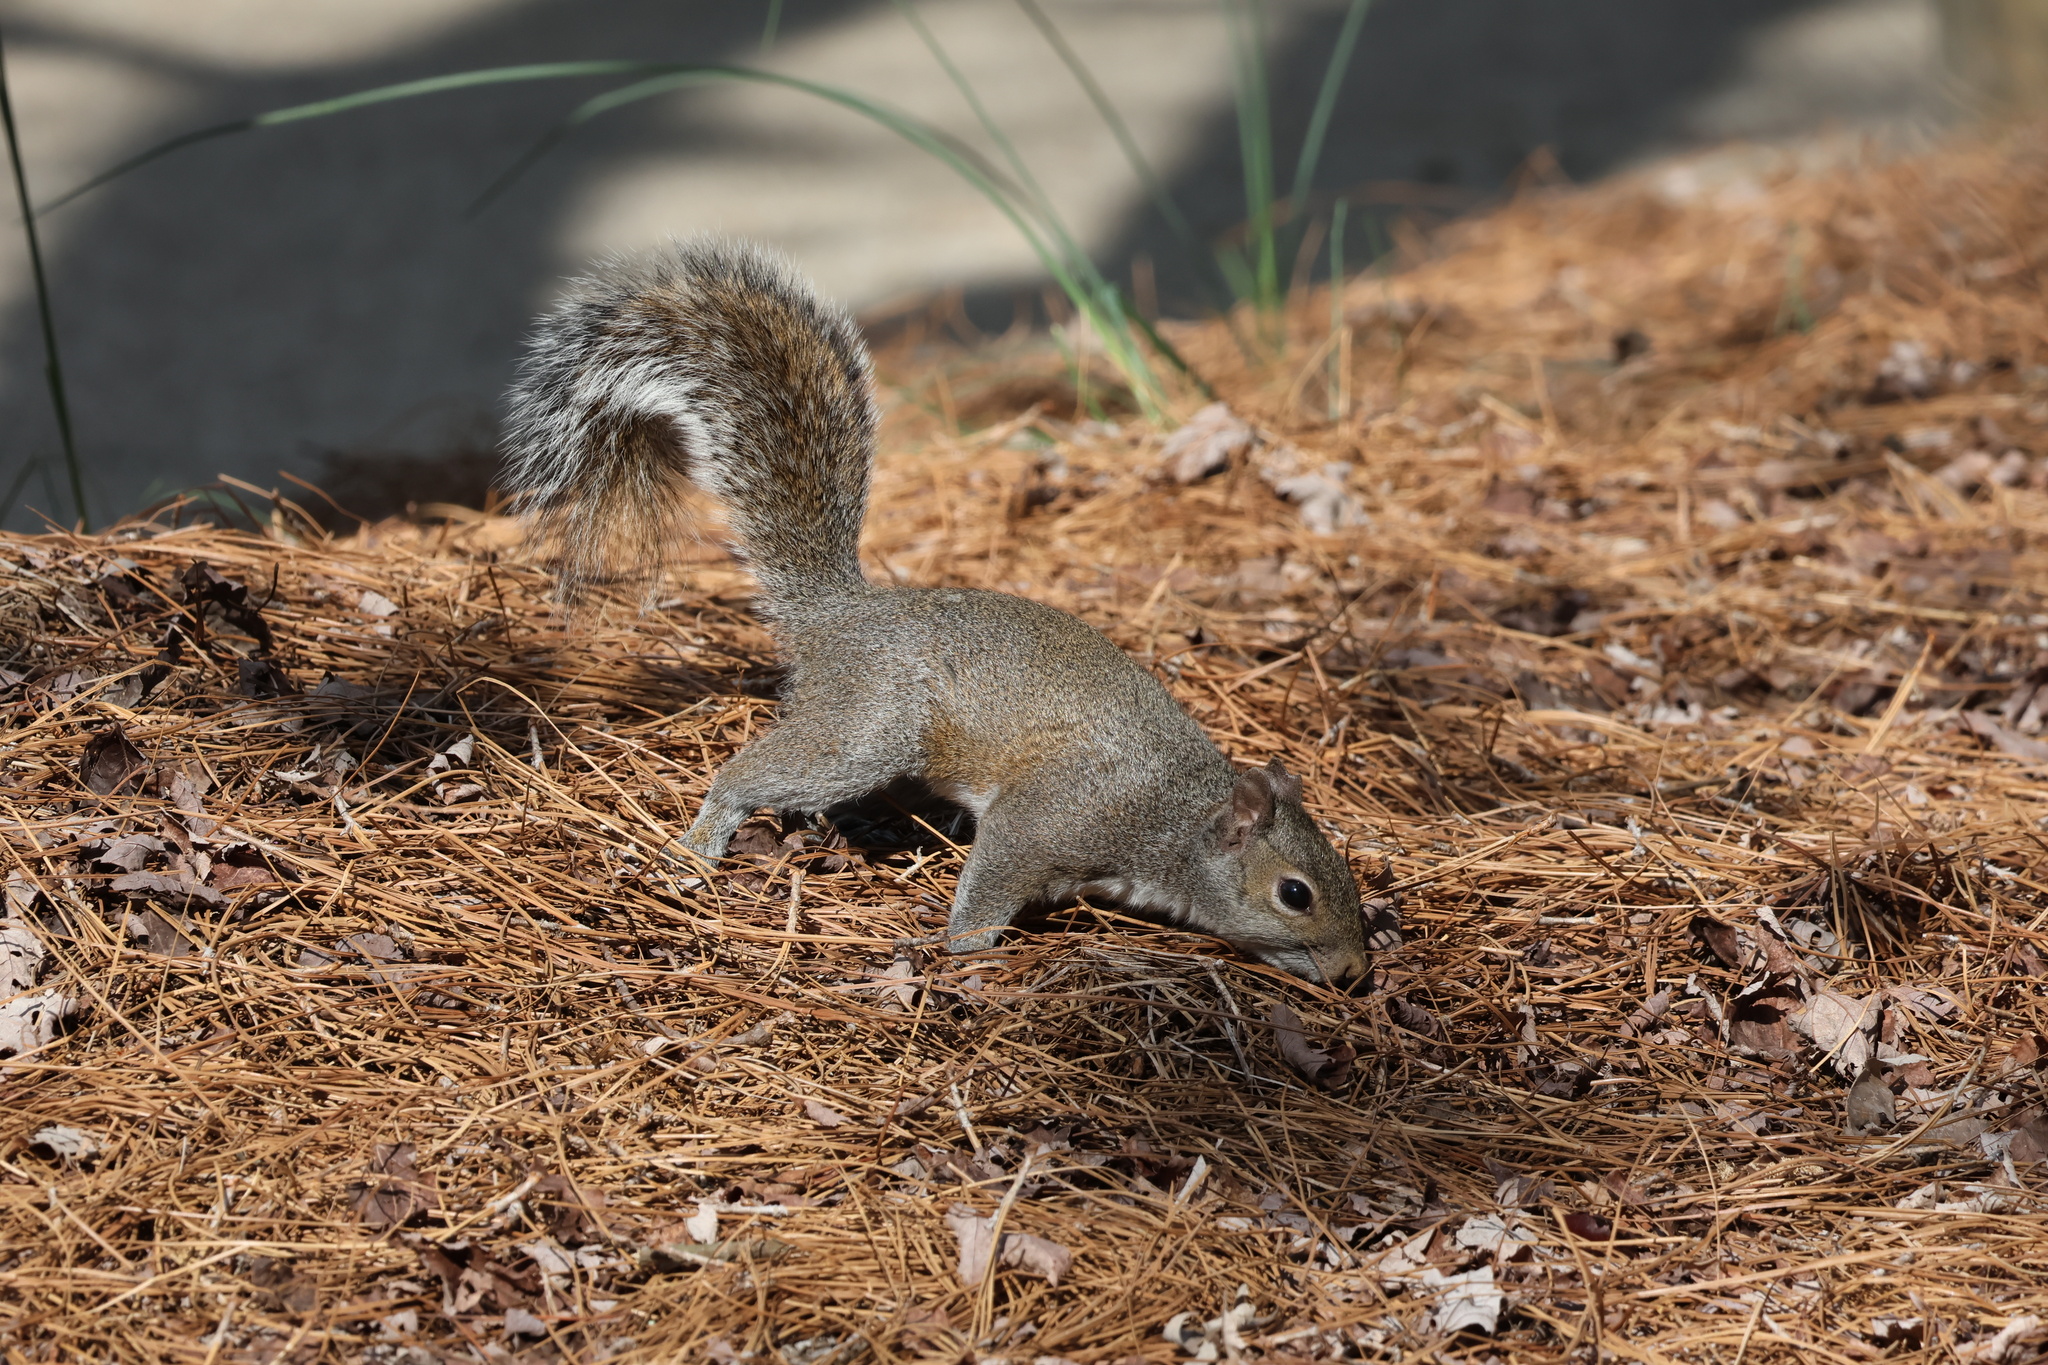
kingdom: Animalia
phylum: Chordata
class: Mammalia
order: Rodentia
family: Sciuridae
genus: Sciurus
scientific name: Sciurus carolinensis
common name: Eastern gray squirrel
